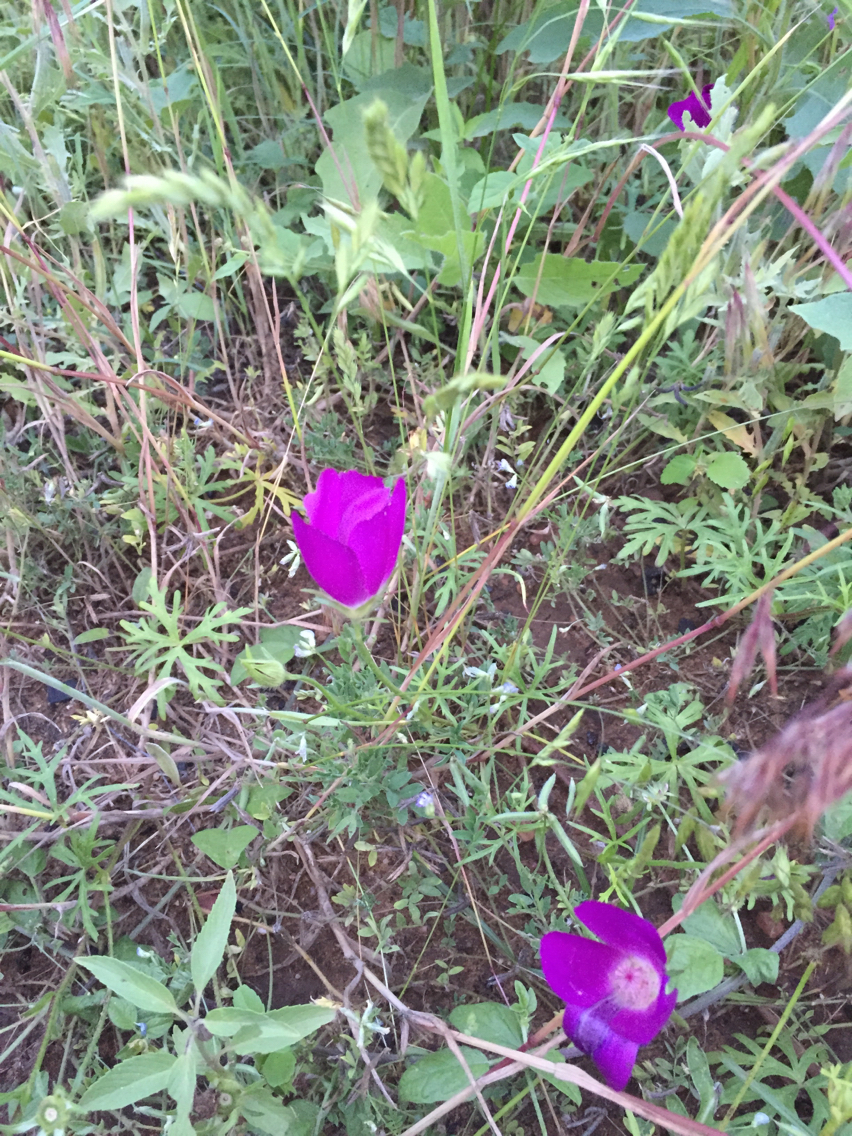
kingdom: Plantae
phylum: Tracheophyta
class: Magnoliopsida
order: Malvales
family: Malvaceae
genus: Callirhoe
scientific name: Callirhoe involucrata
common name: Purple poppy-mallow
